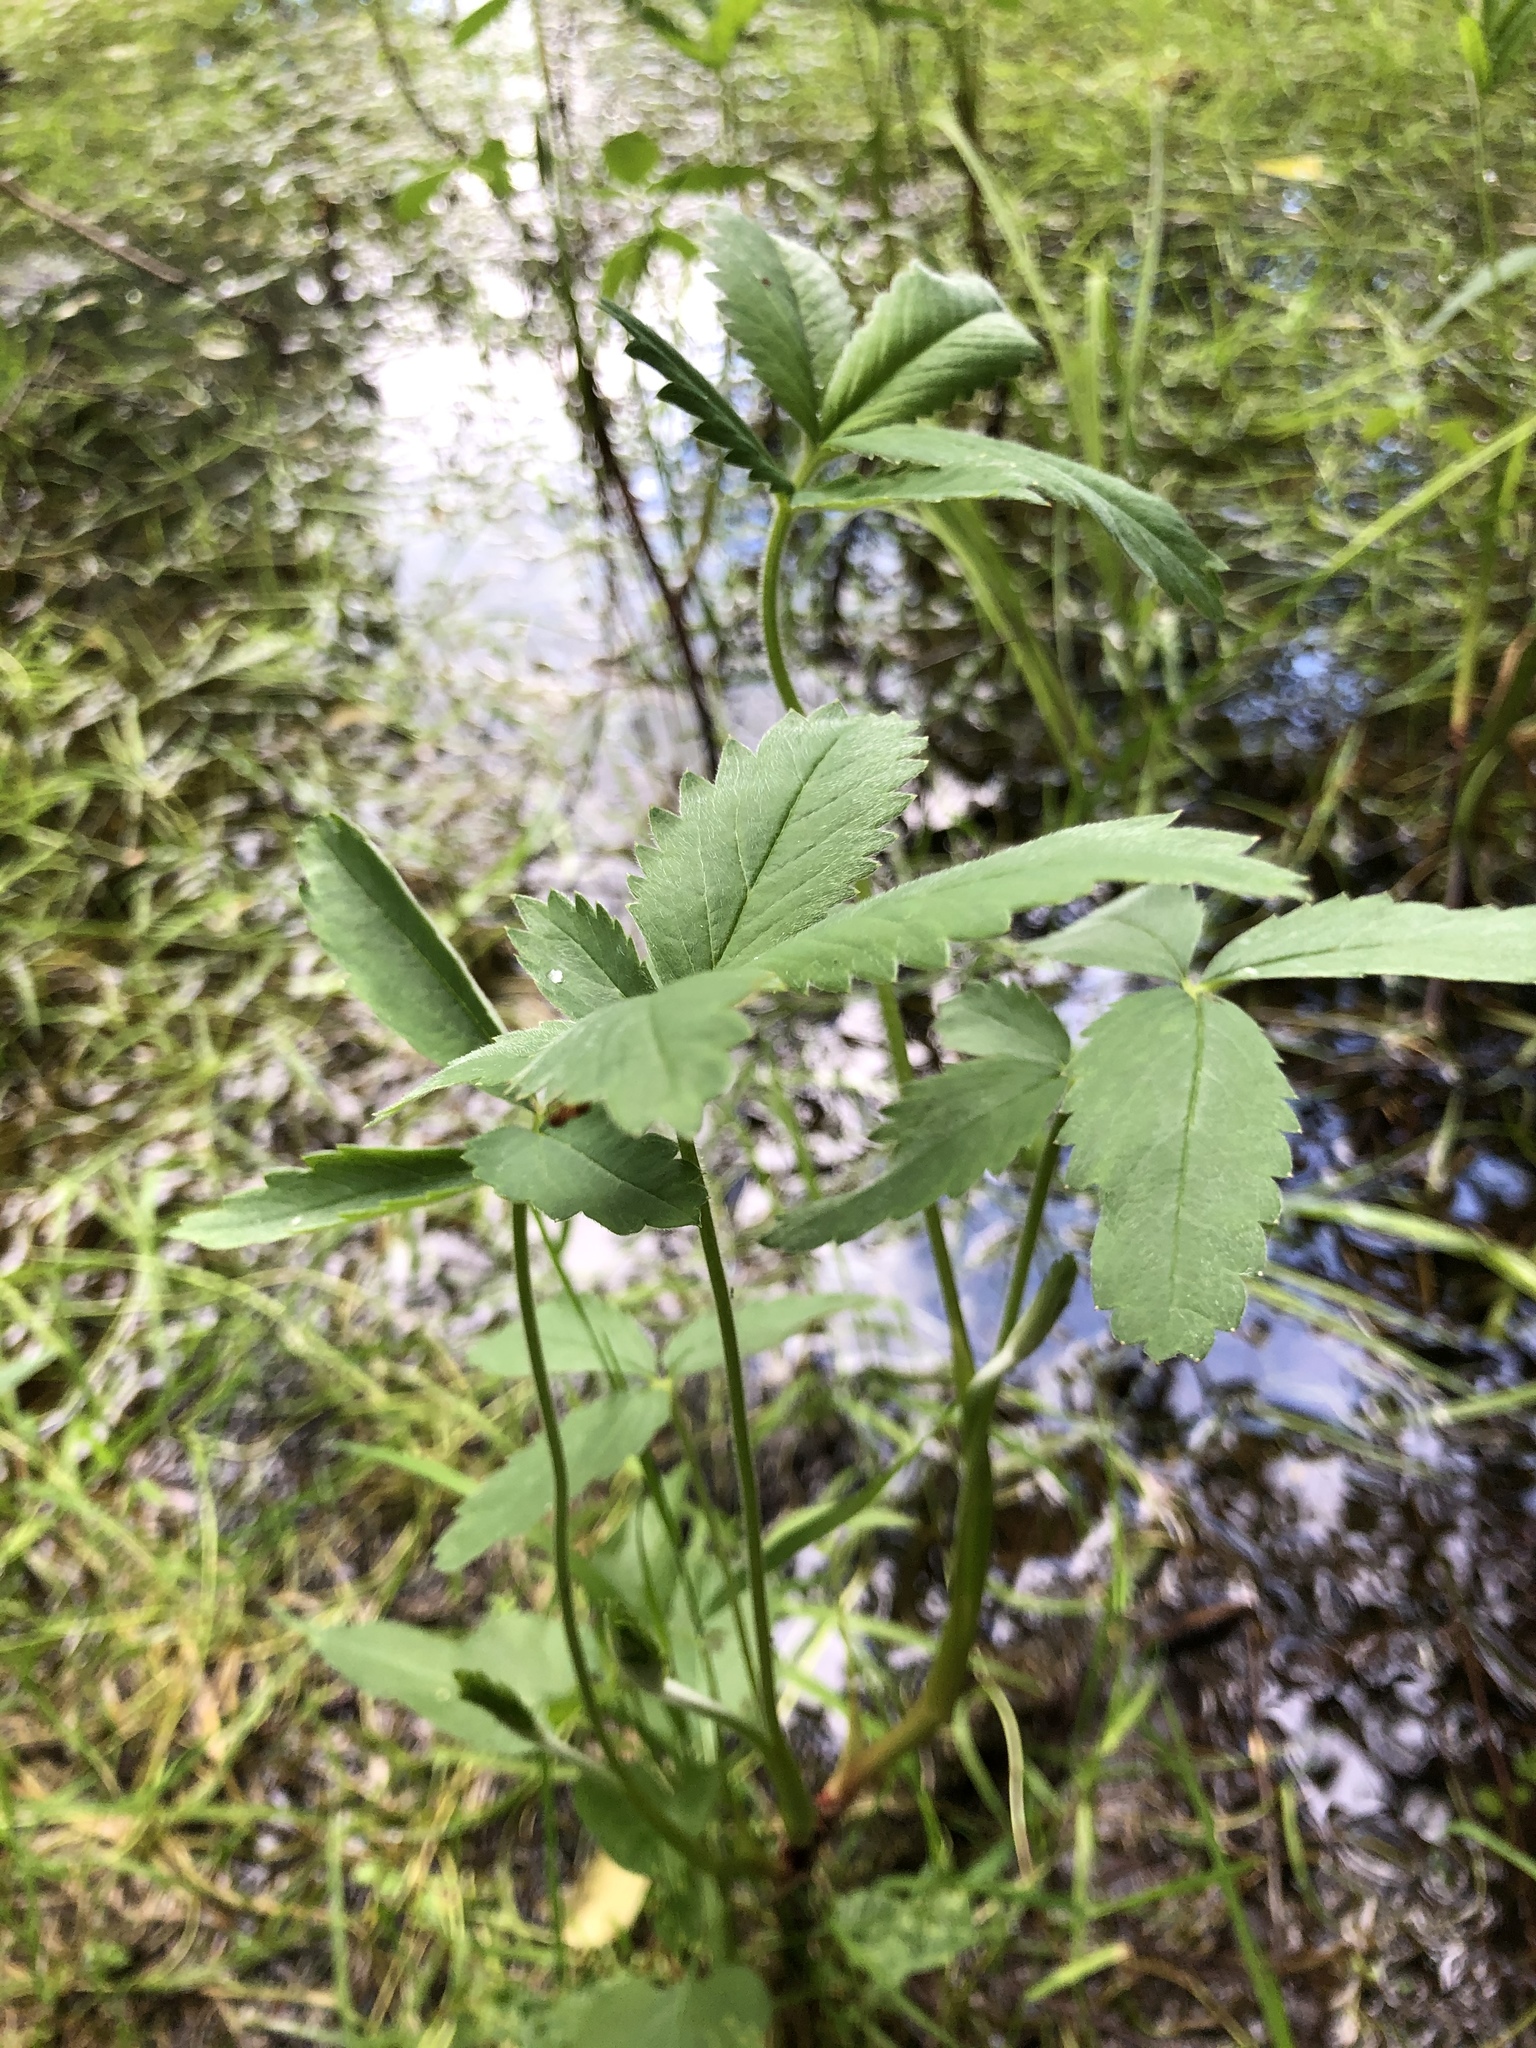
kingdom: Plantae
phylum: Tracheophyta
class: Magnoliopsida
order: Rosales
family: Rosaceae
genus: Comarum
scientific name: Comarum palustre
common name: Marsh cinquefoil
